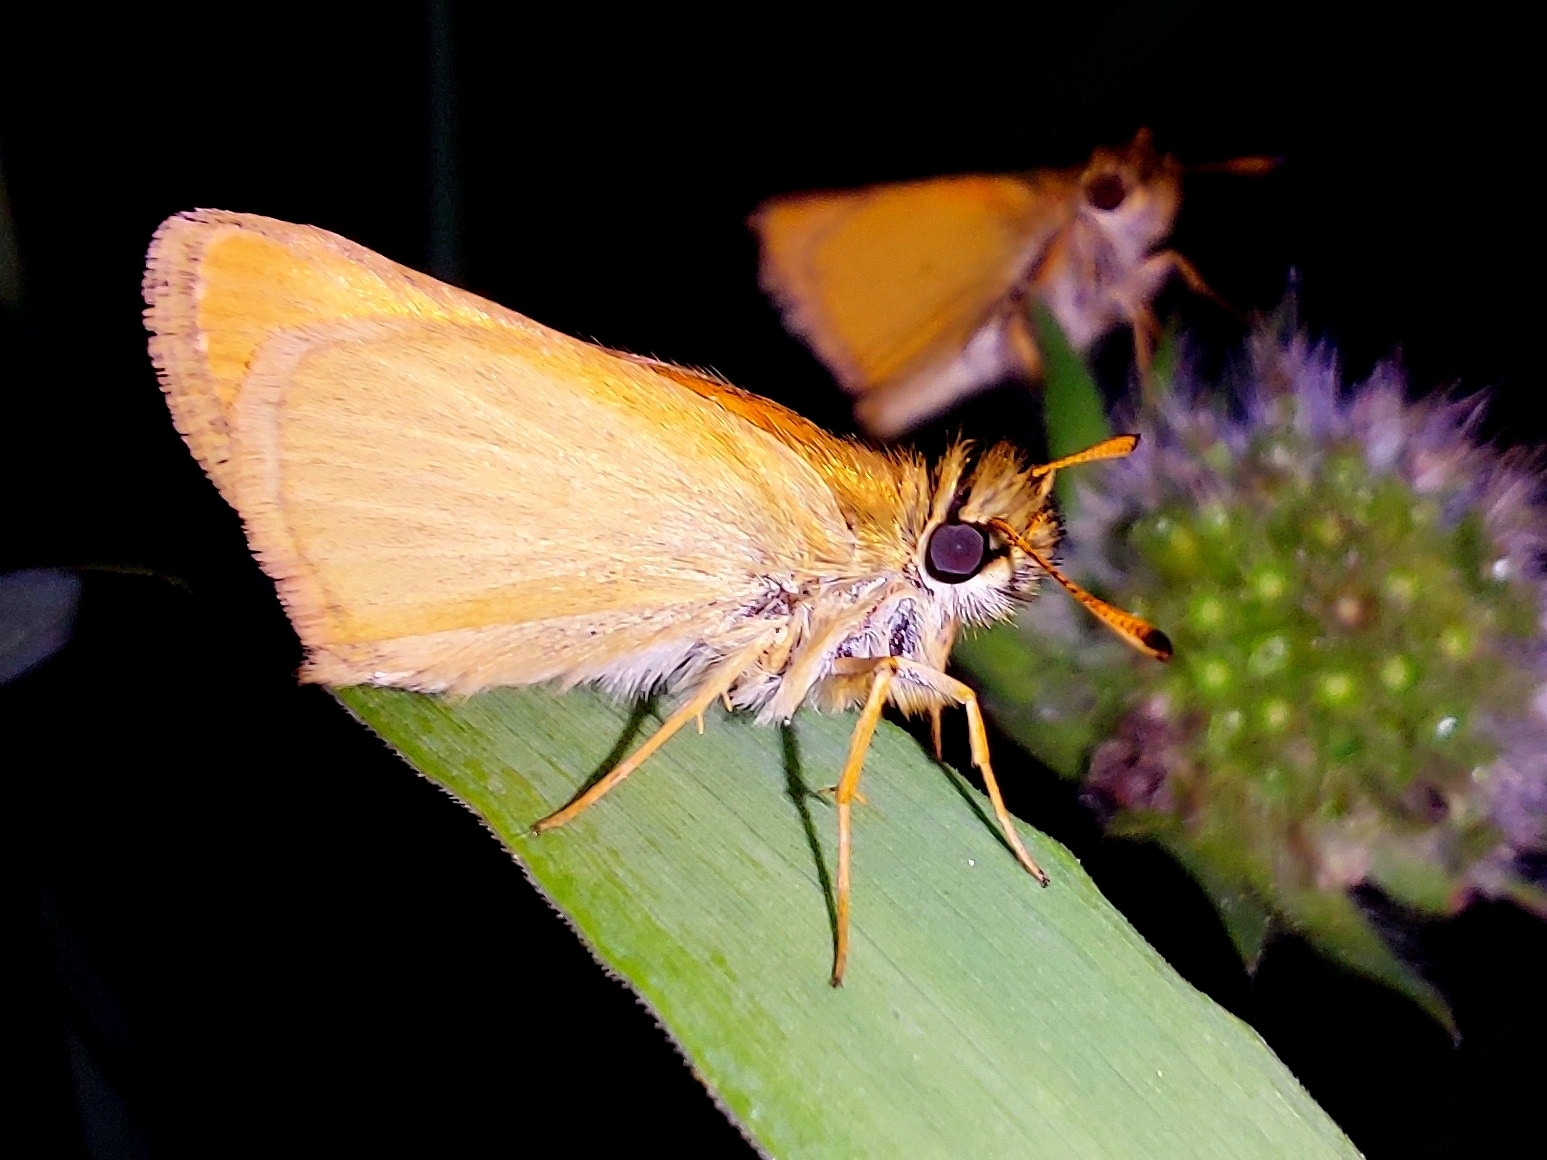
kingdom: Animalia
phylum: Arthropoda
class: Insecta
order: Lepidoptera
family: Hesperiidae
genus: Thymelicus
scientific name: Thymelicus lineola
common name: Essex skipper
